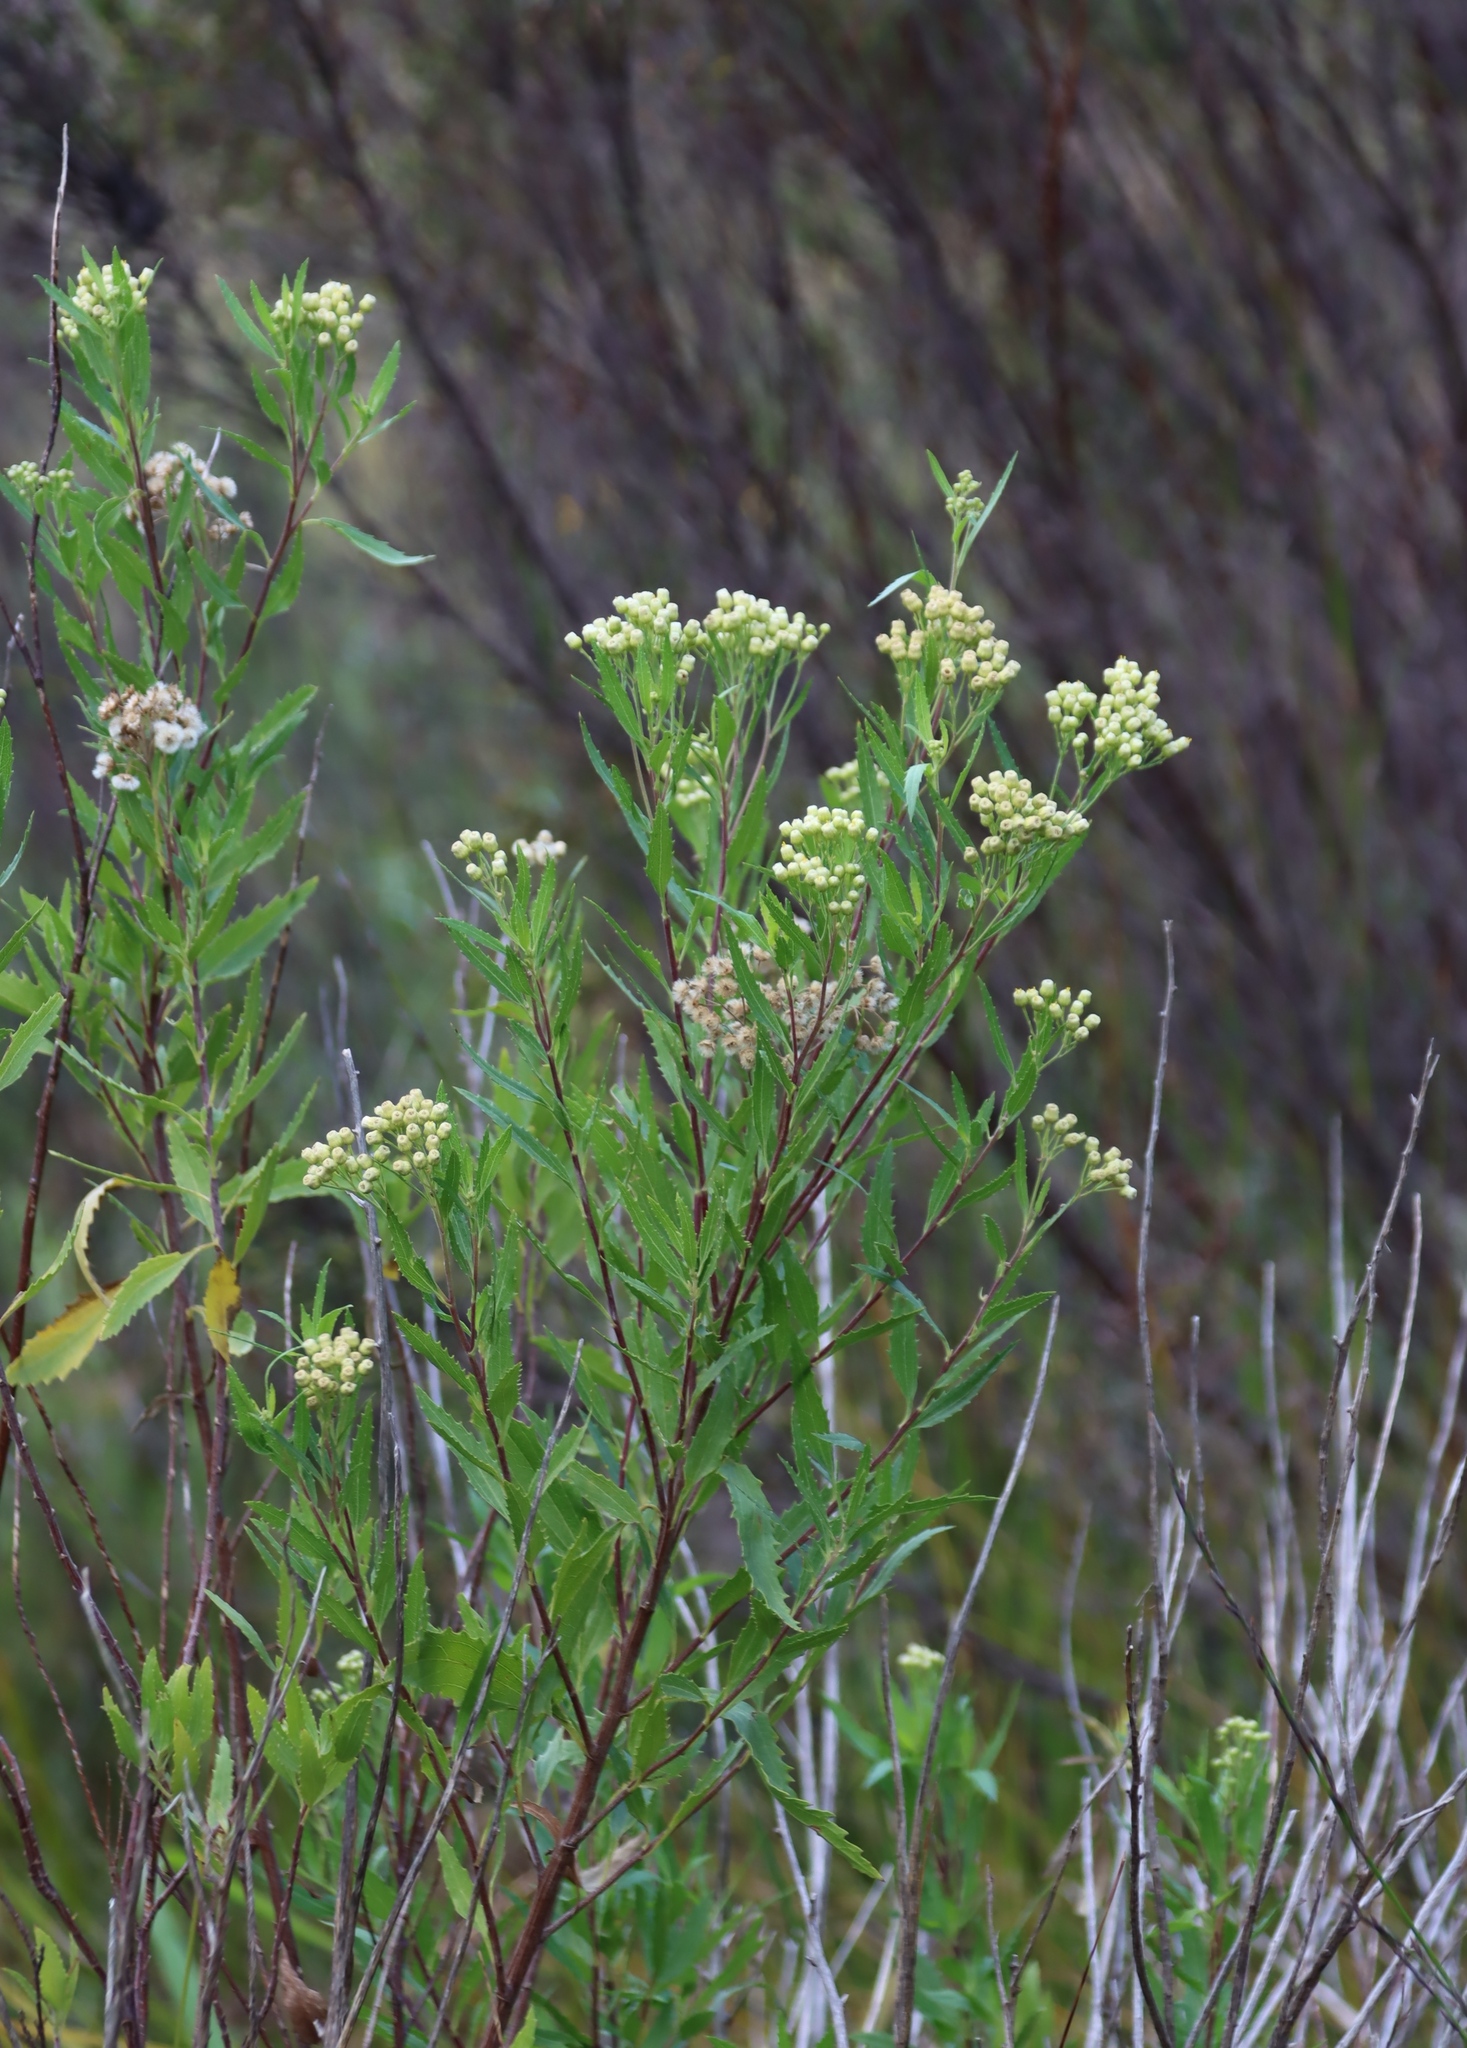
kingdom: Plantae
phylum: Tracheophyta
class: Magnoliopsida
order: Asterales
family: Asteraceae
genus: Nidorella
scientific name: Nidorella ivifolia
